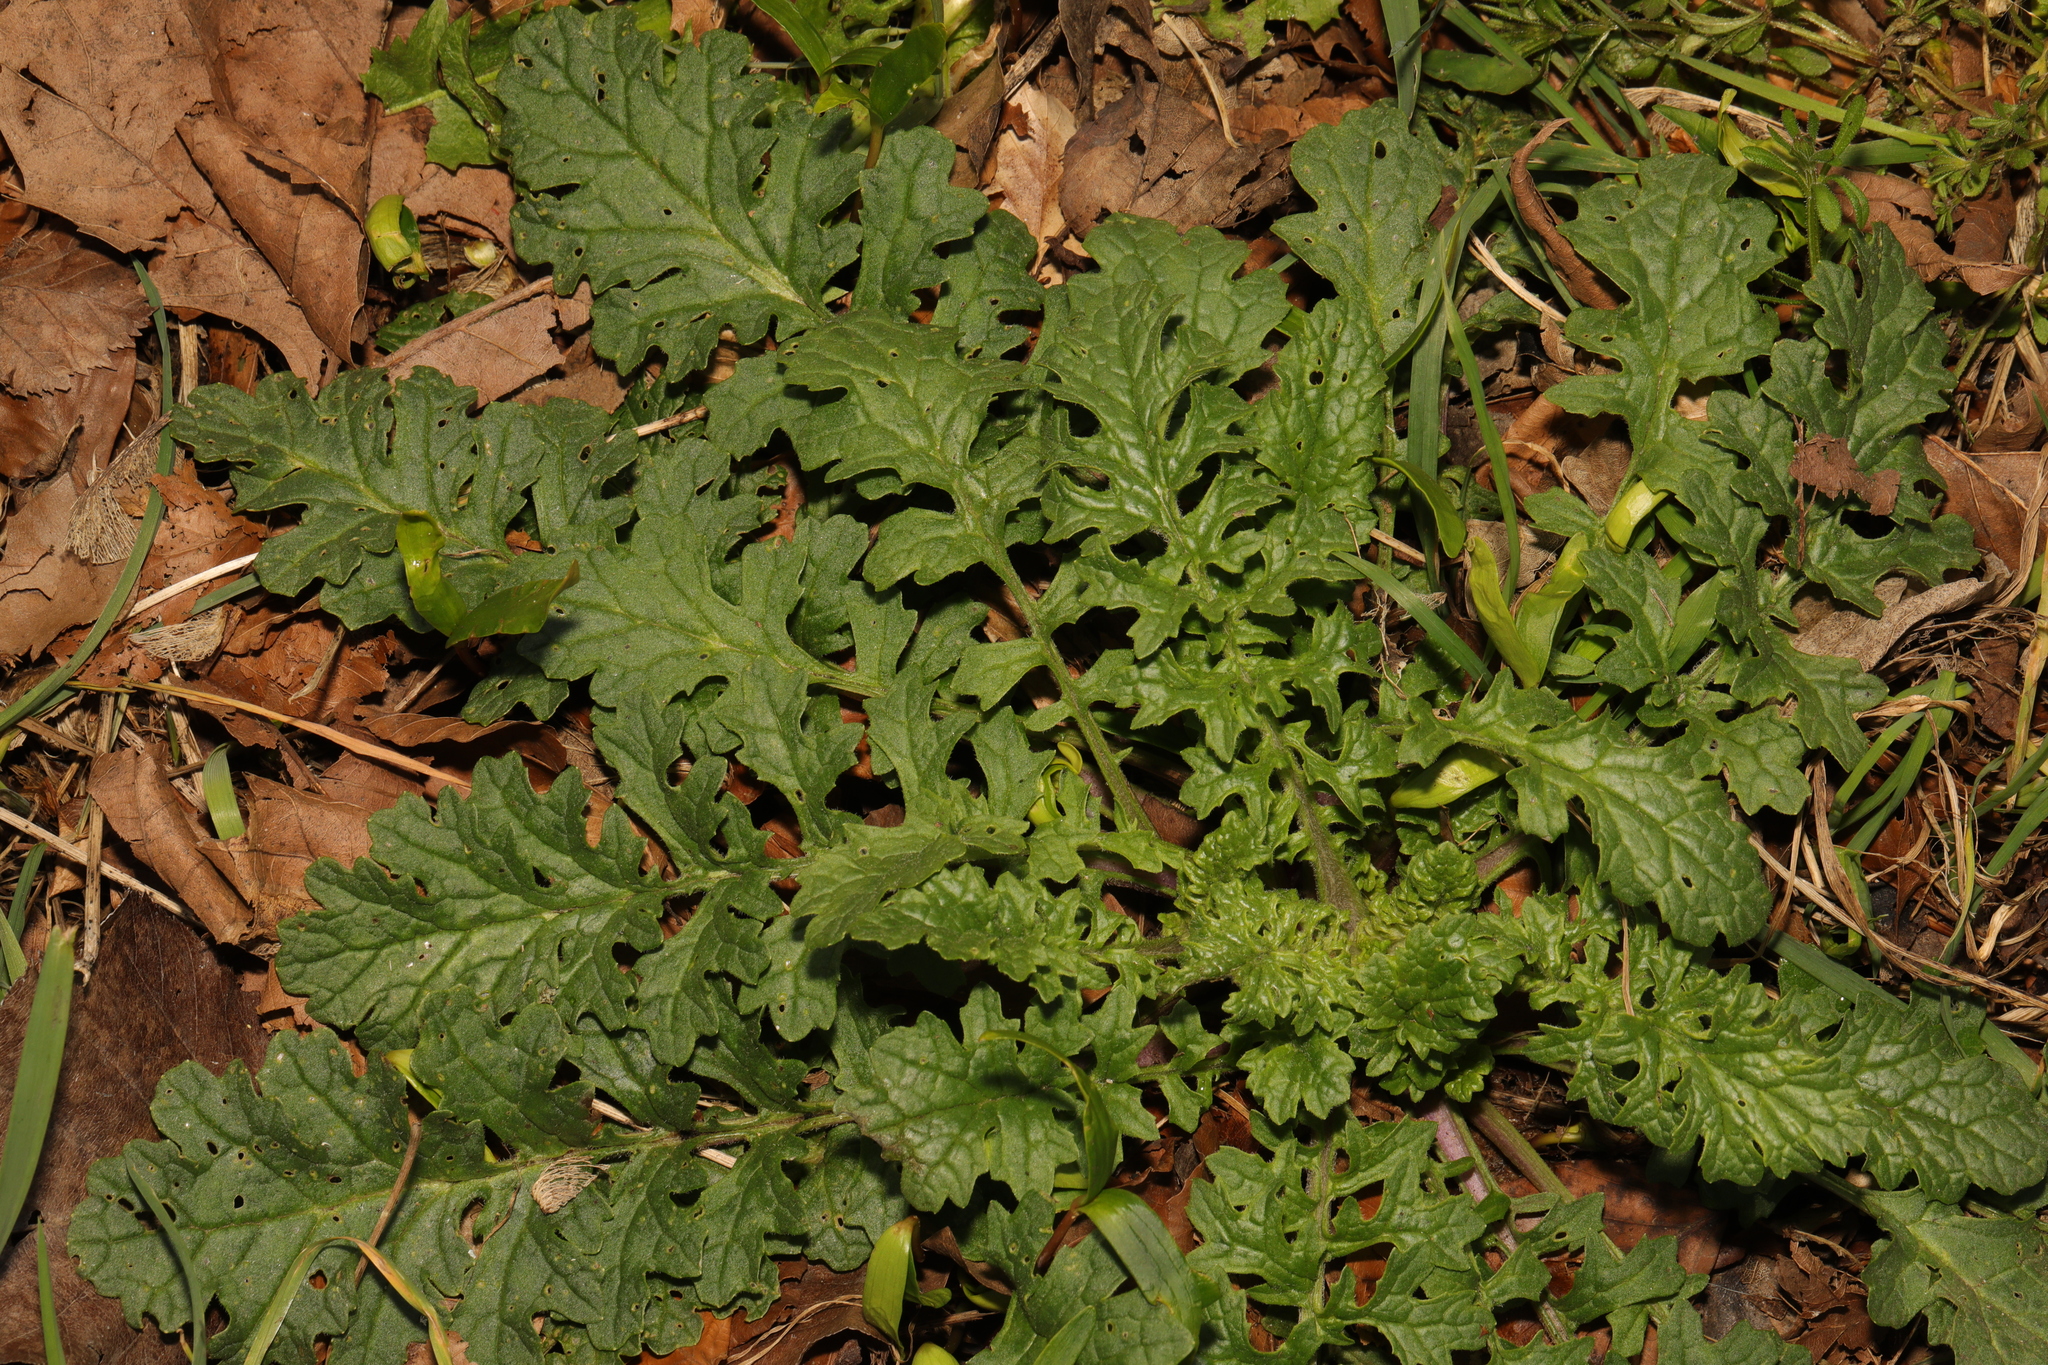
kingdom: Plantae
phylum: Tracheophyta
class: Magnoliopsida
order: Asterales
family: Asteraceae
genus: Jacobaea
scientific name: Jacobaea vulgaris
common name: Stinking willie
